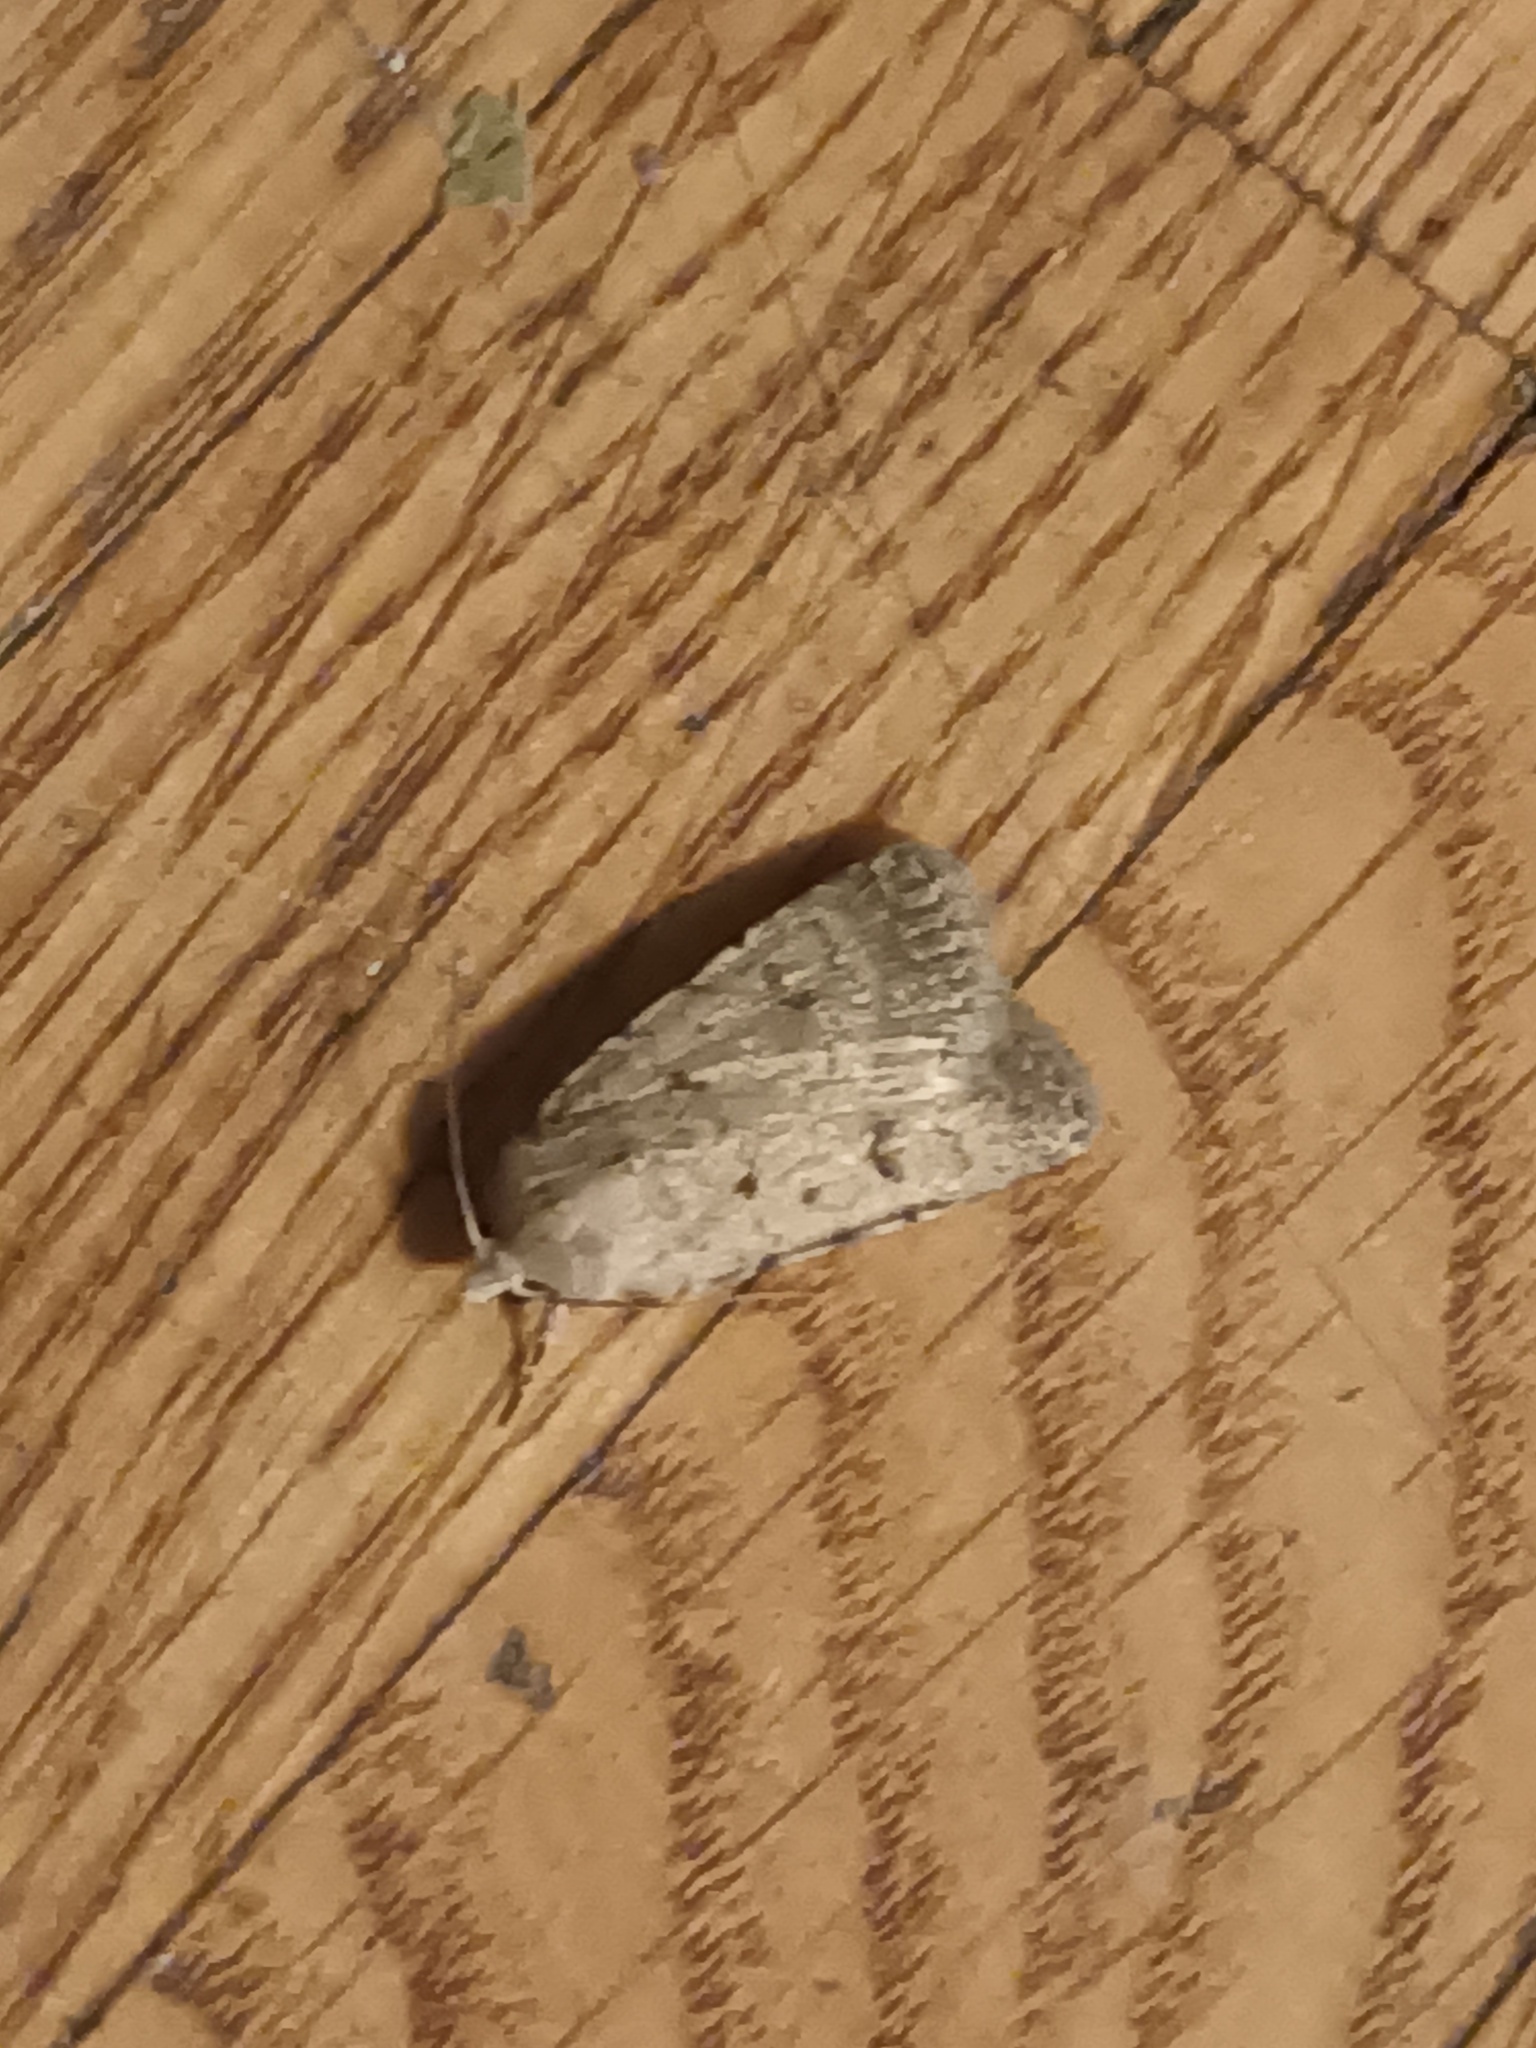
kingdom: Animalia
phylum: Arthropoda
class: Insecta
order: Lepidoptera
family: Noctuidae
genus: Caradrina
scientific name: Caradrina clavipalpis
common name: Pale mottled willow
